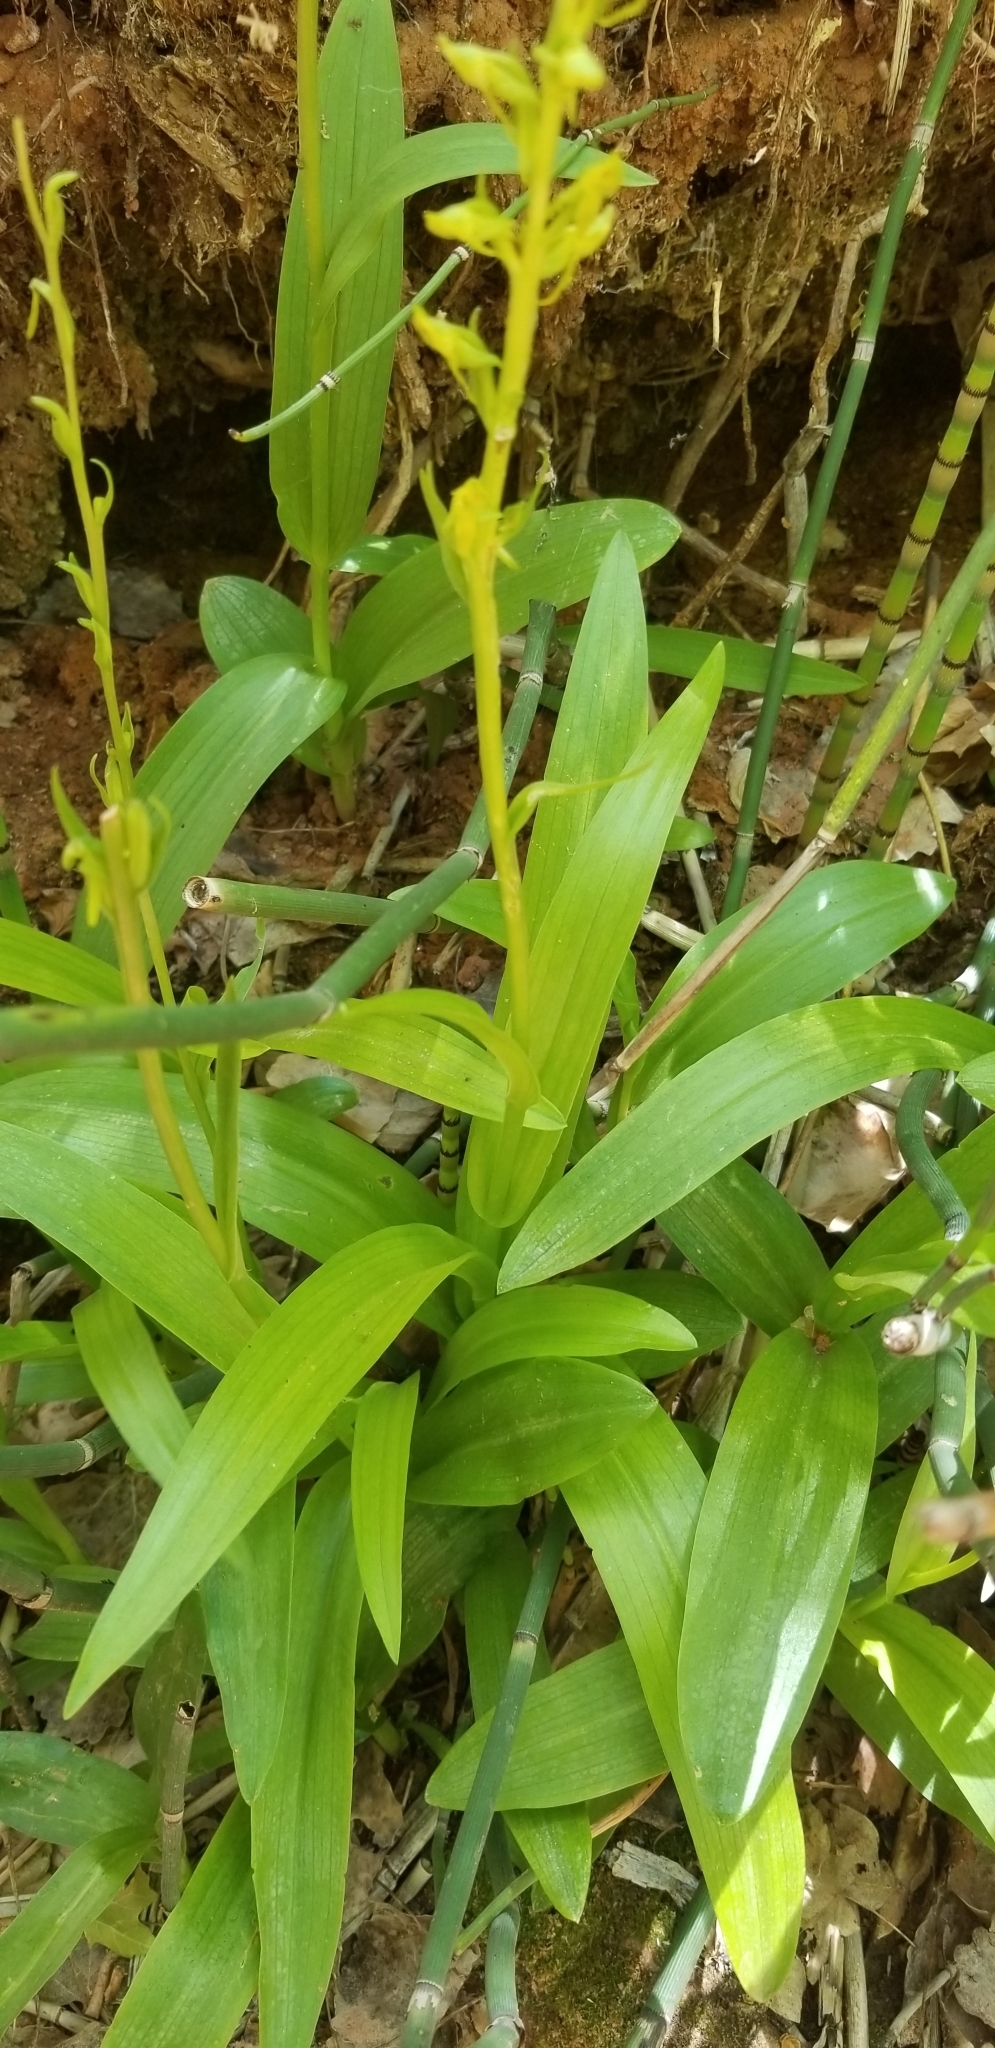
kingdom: Plantae
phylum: Tracheophyta
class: Liliopsida
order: Asparagales
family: Orchidaceae
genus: Platanthera
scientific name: Platanthera sparsiflora
